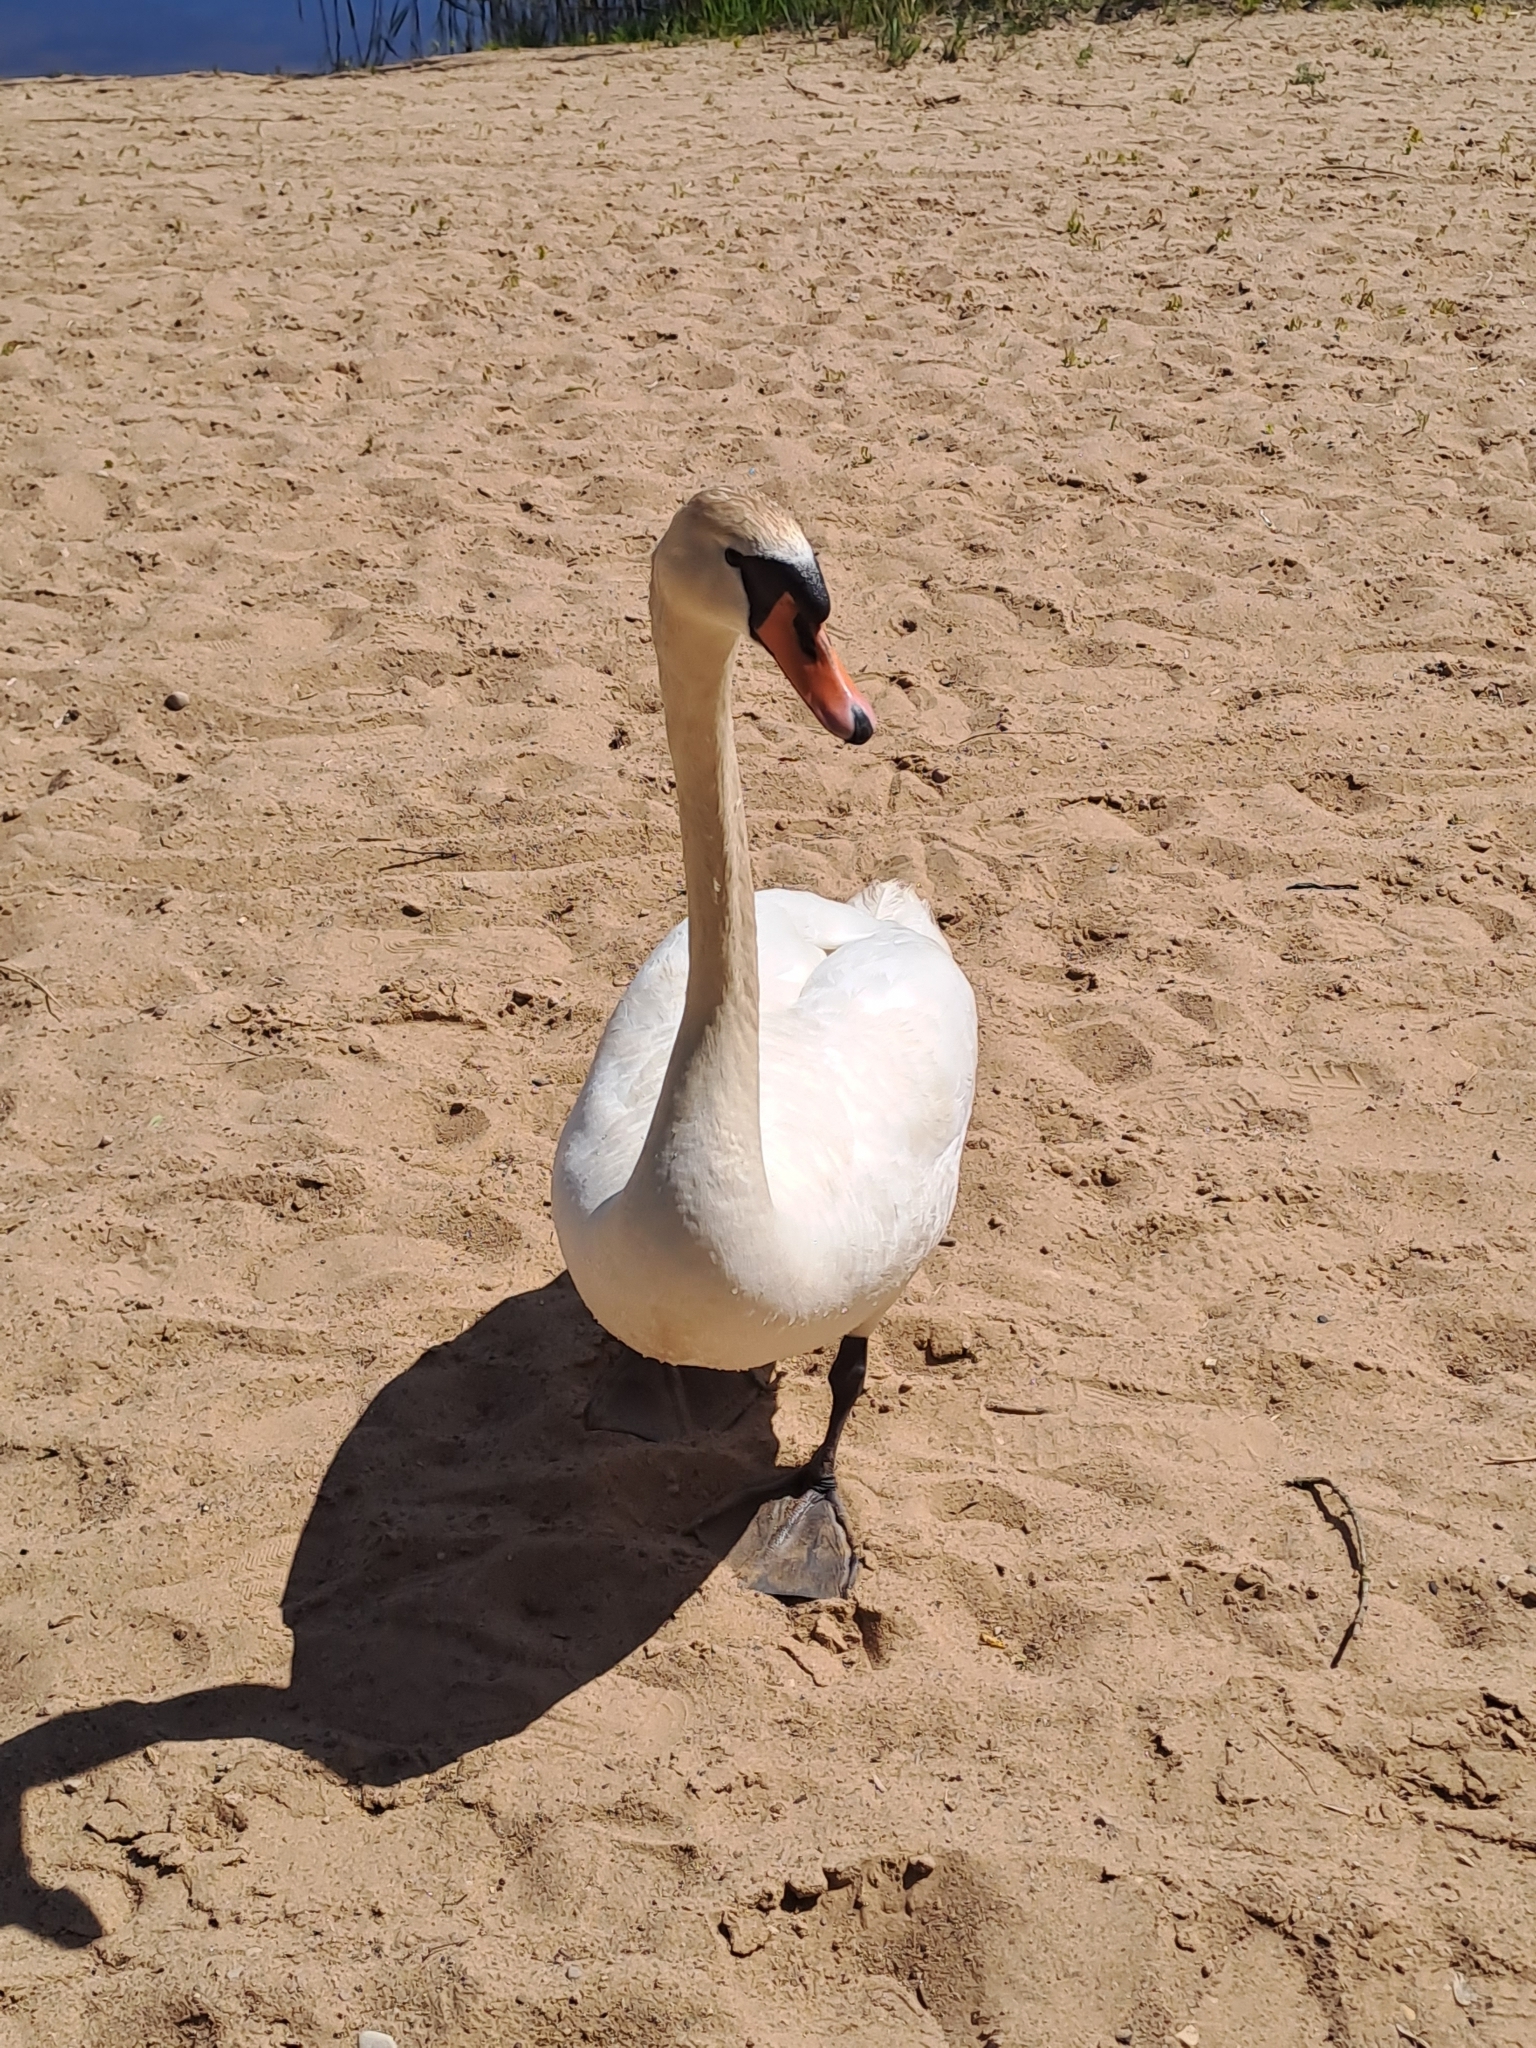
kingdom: Animalia
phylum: Chordata
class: Aves
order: Anseriformes
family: Anatidae
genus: Cygnus
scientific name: Cygnus olor
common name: Mute swan
